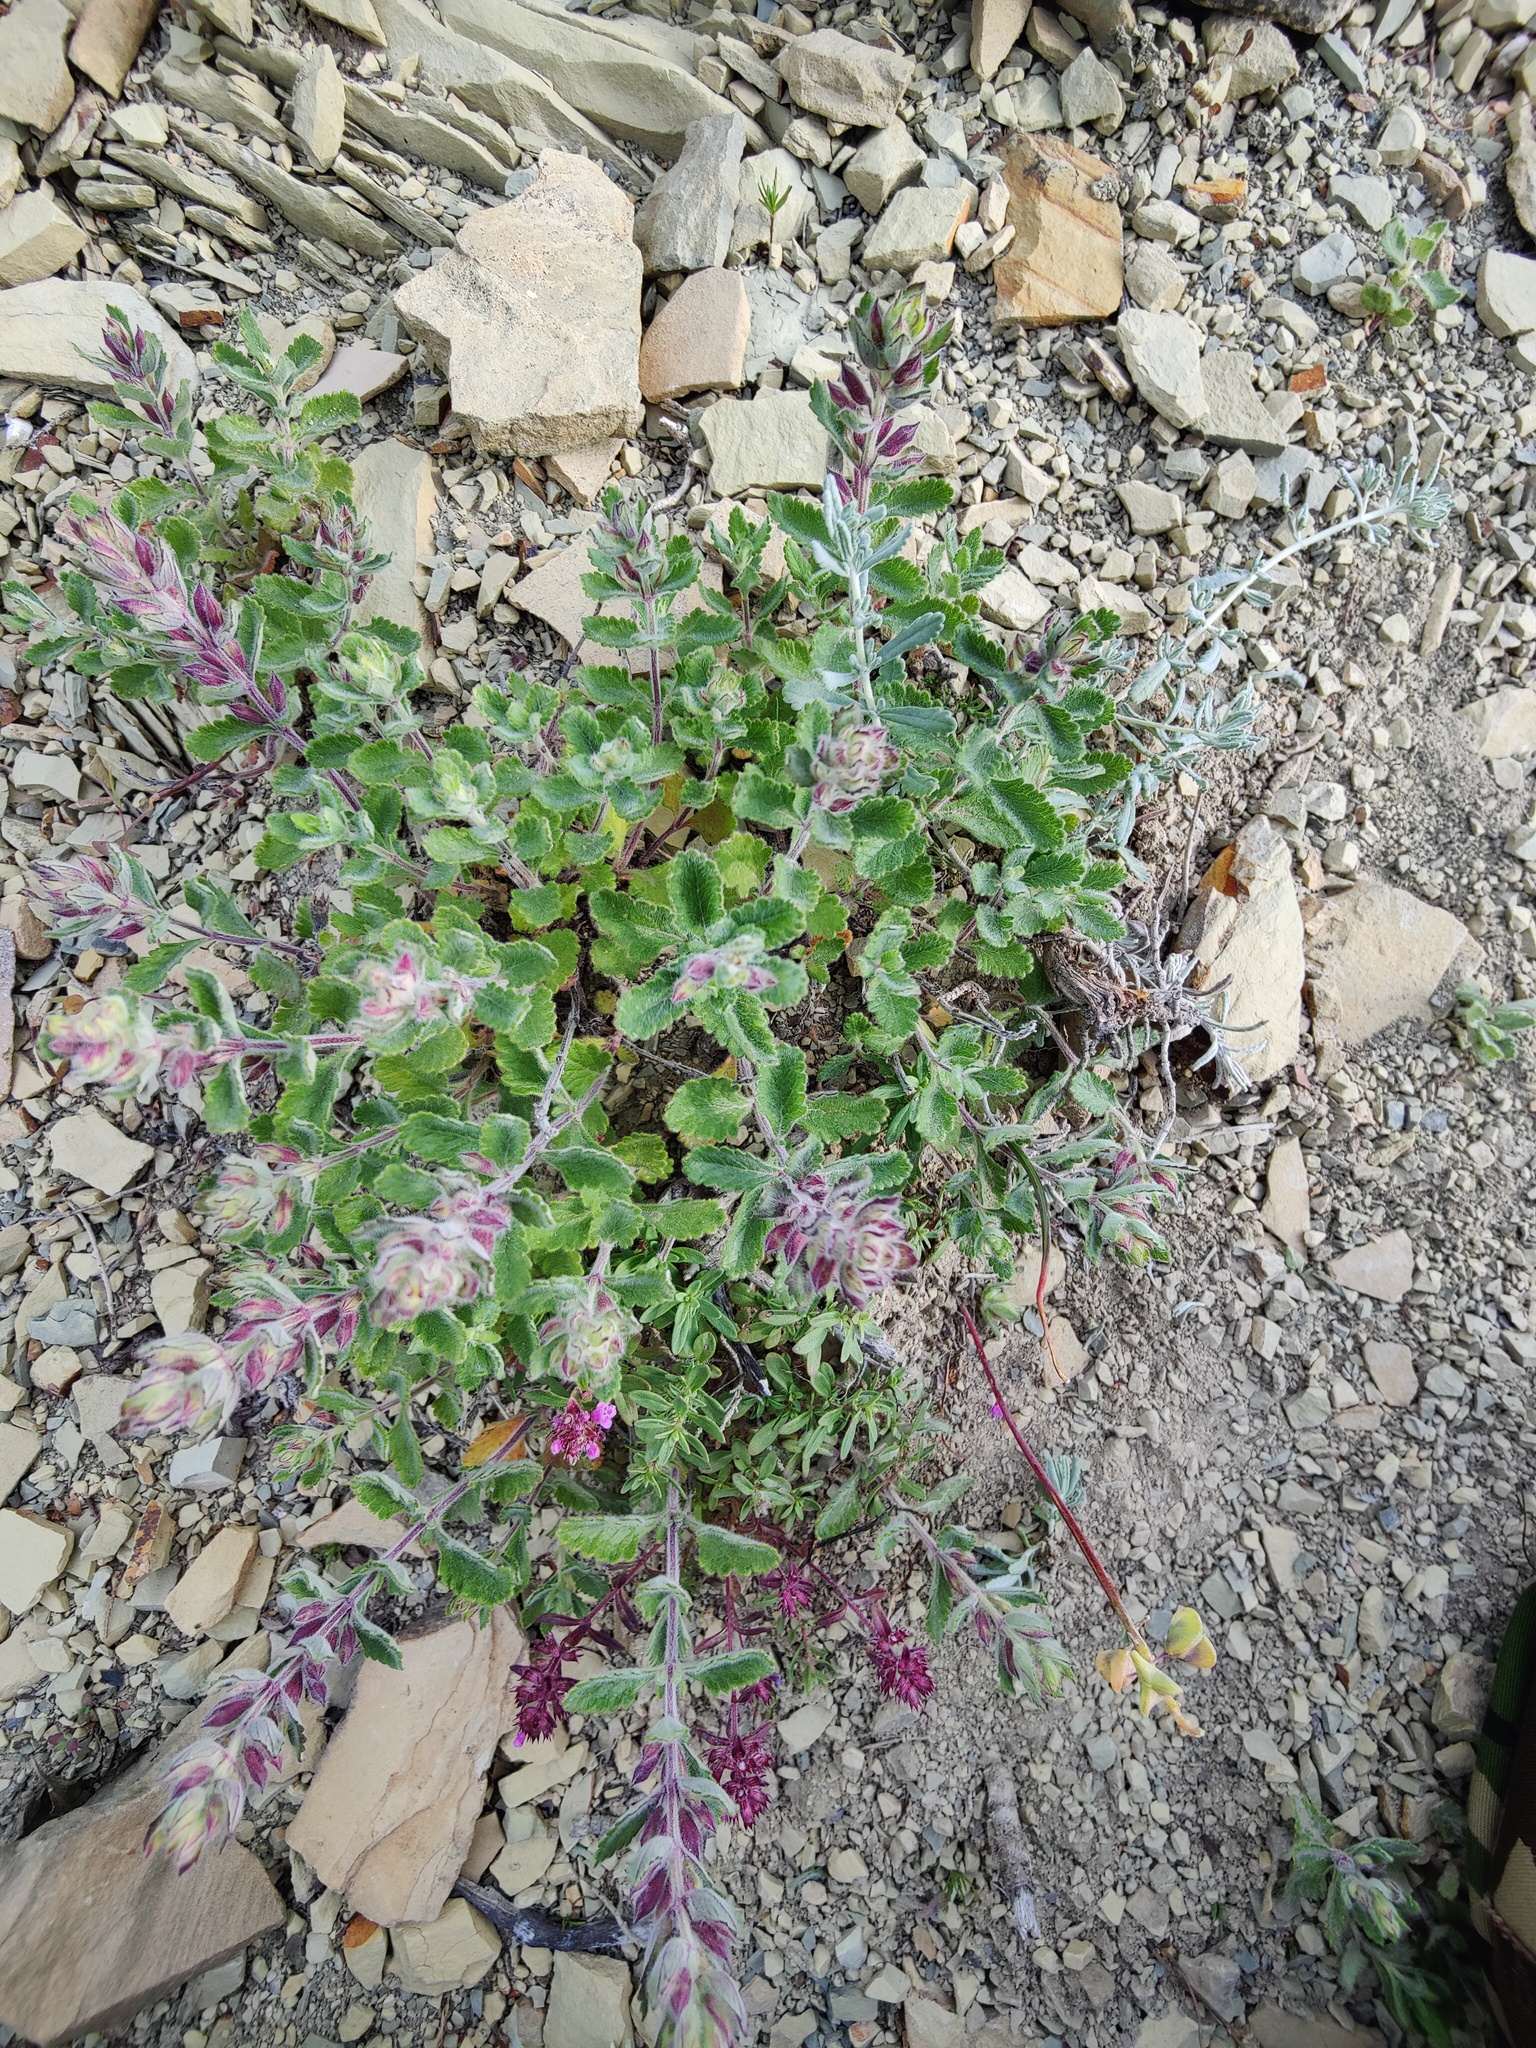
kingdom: Plantae
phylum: Tracheophyta
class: Magnoliopsida
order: Lamiales
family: Lamiaceae
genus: Teucrium
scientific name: Teucrium chamaedrys
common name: Wall germander
